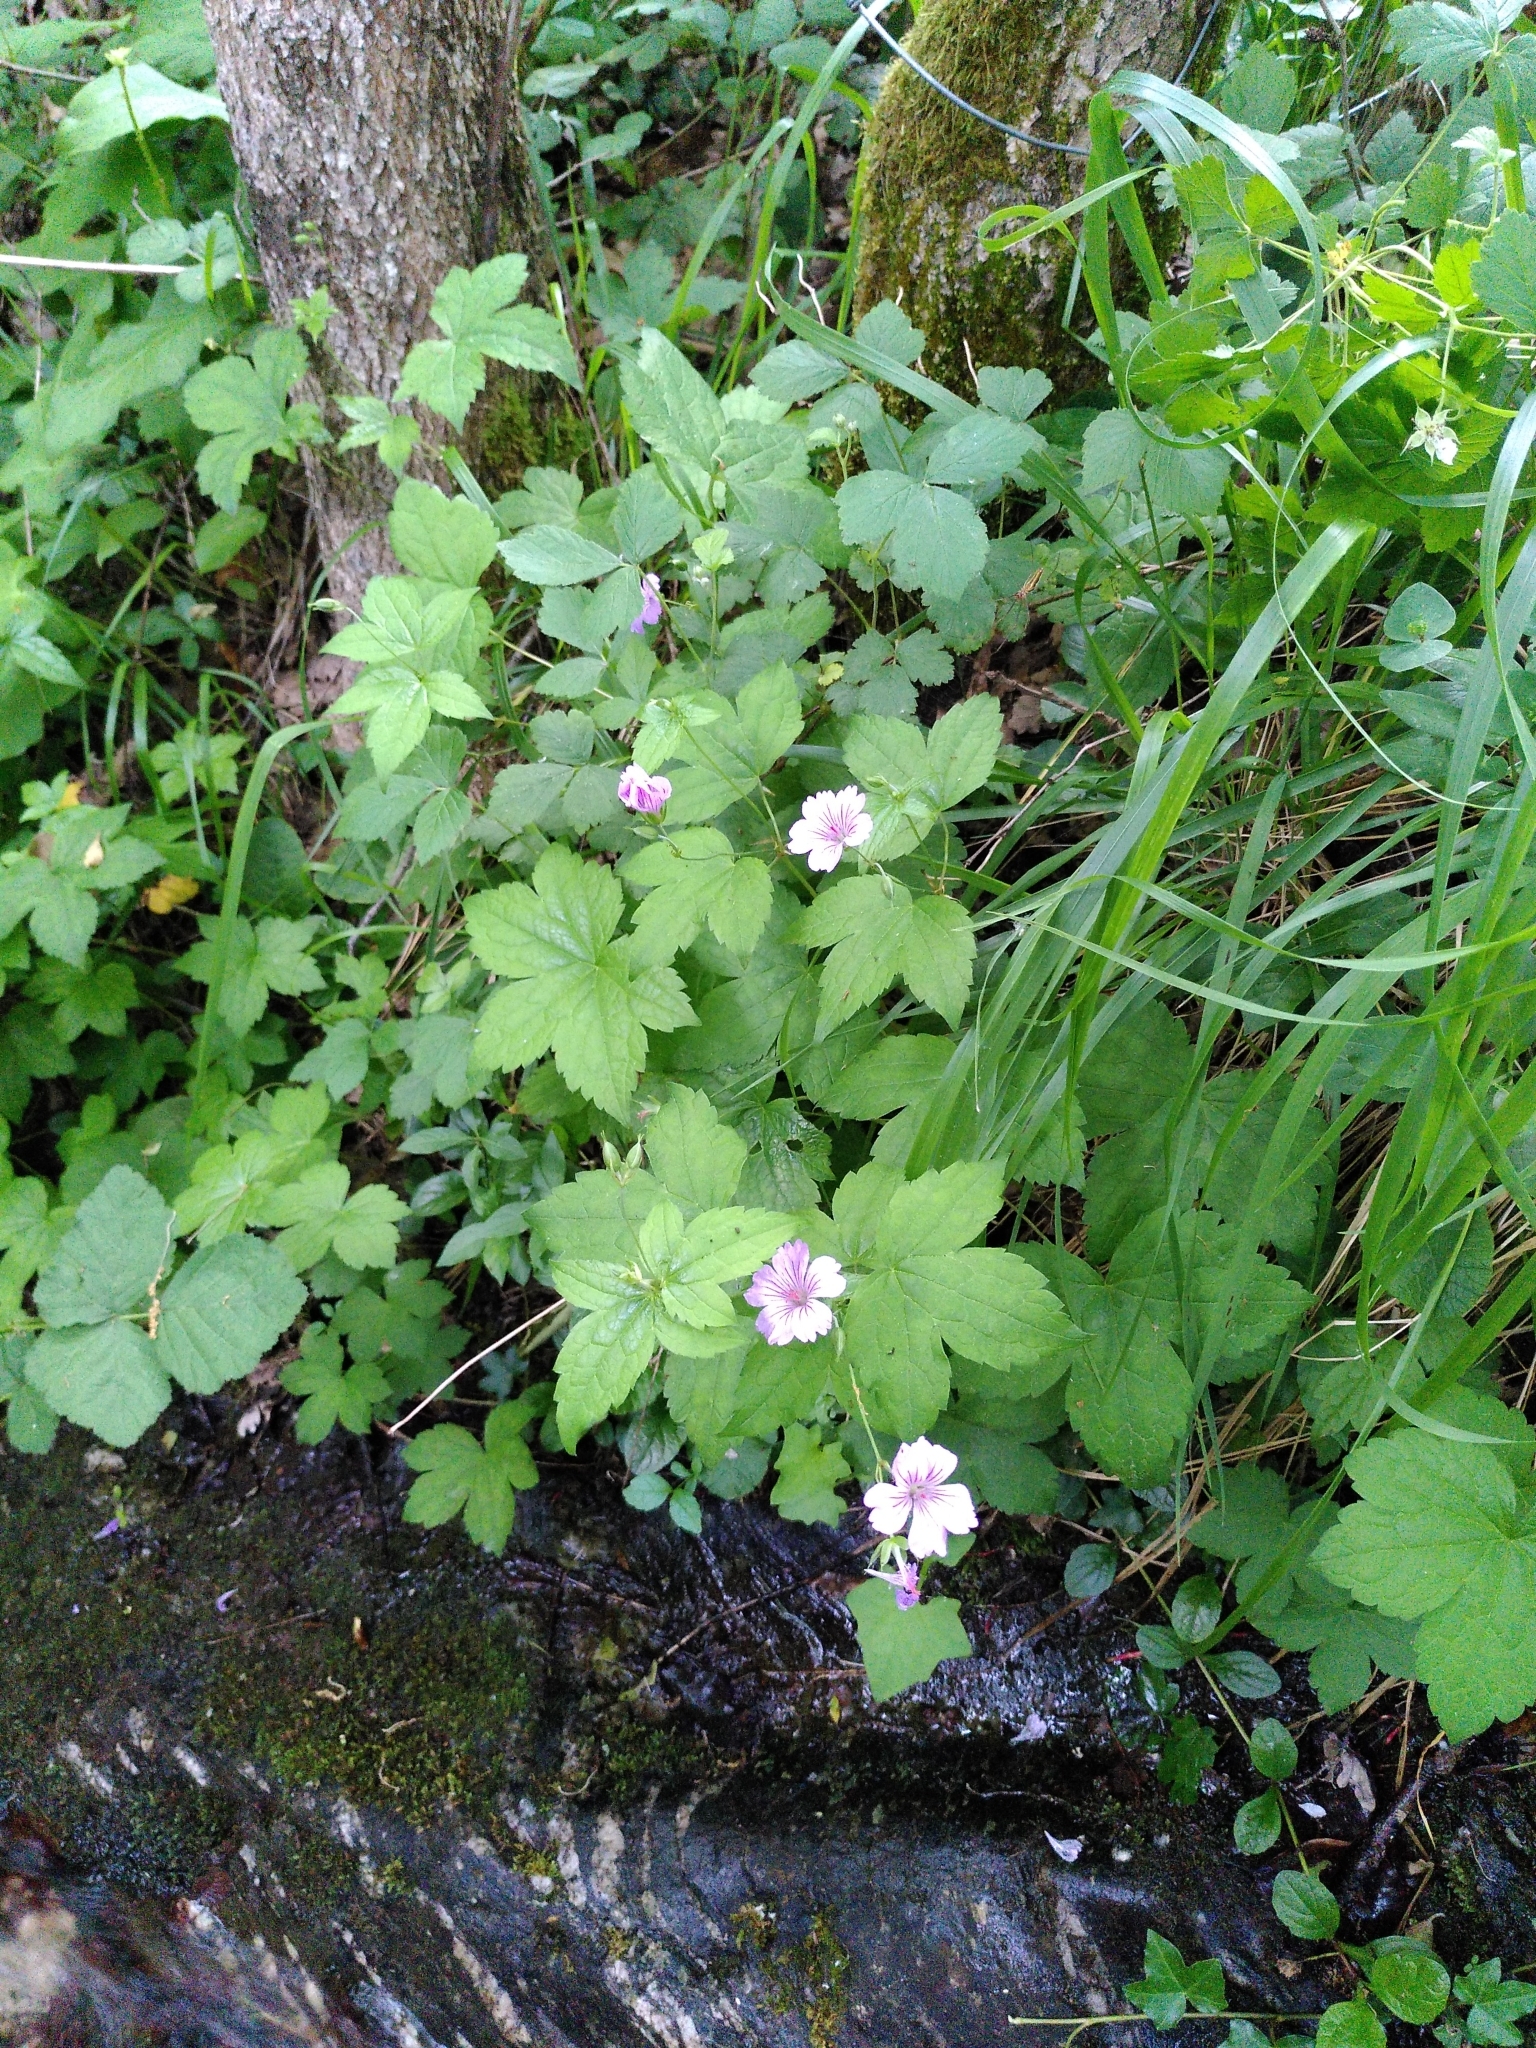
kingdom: Plantae
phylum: Tracheophyta
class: Magnoliopsida
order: Geraniales
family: Geraniaceae
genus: Geranium
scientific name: Geranium nodosum
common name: Knotted crane's-bill
